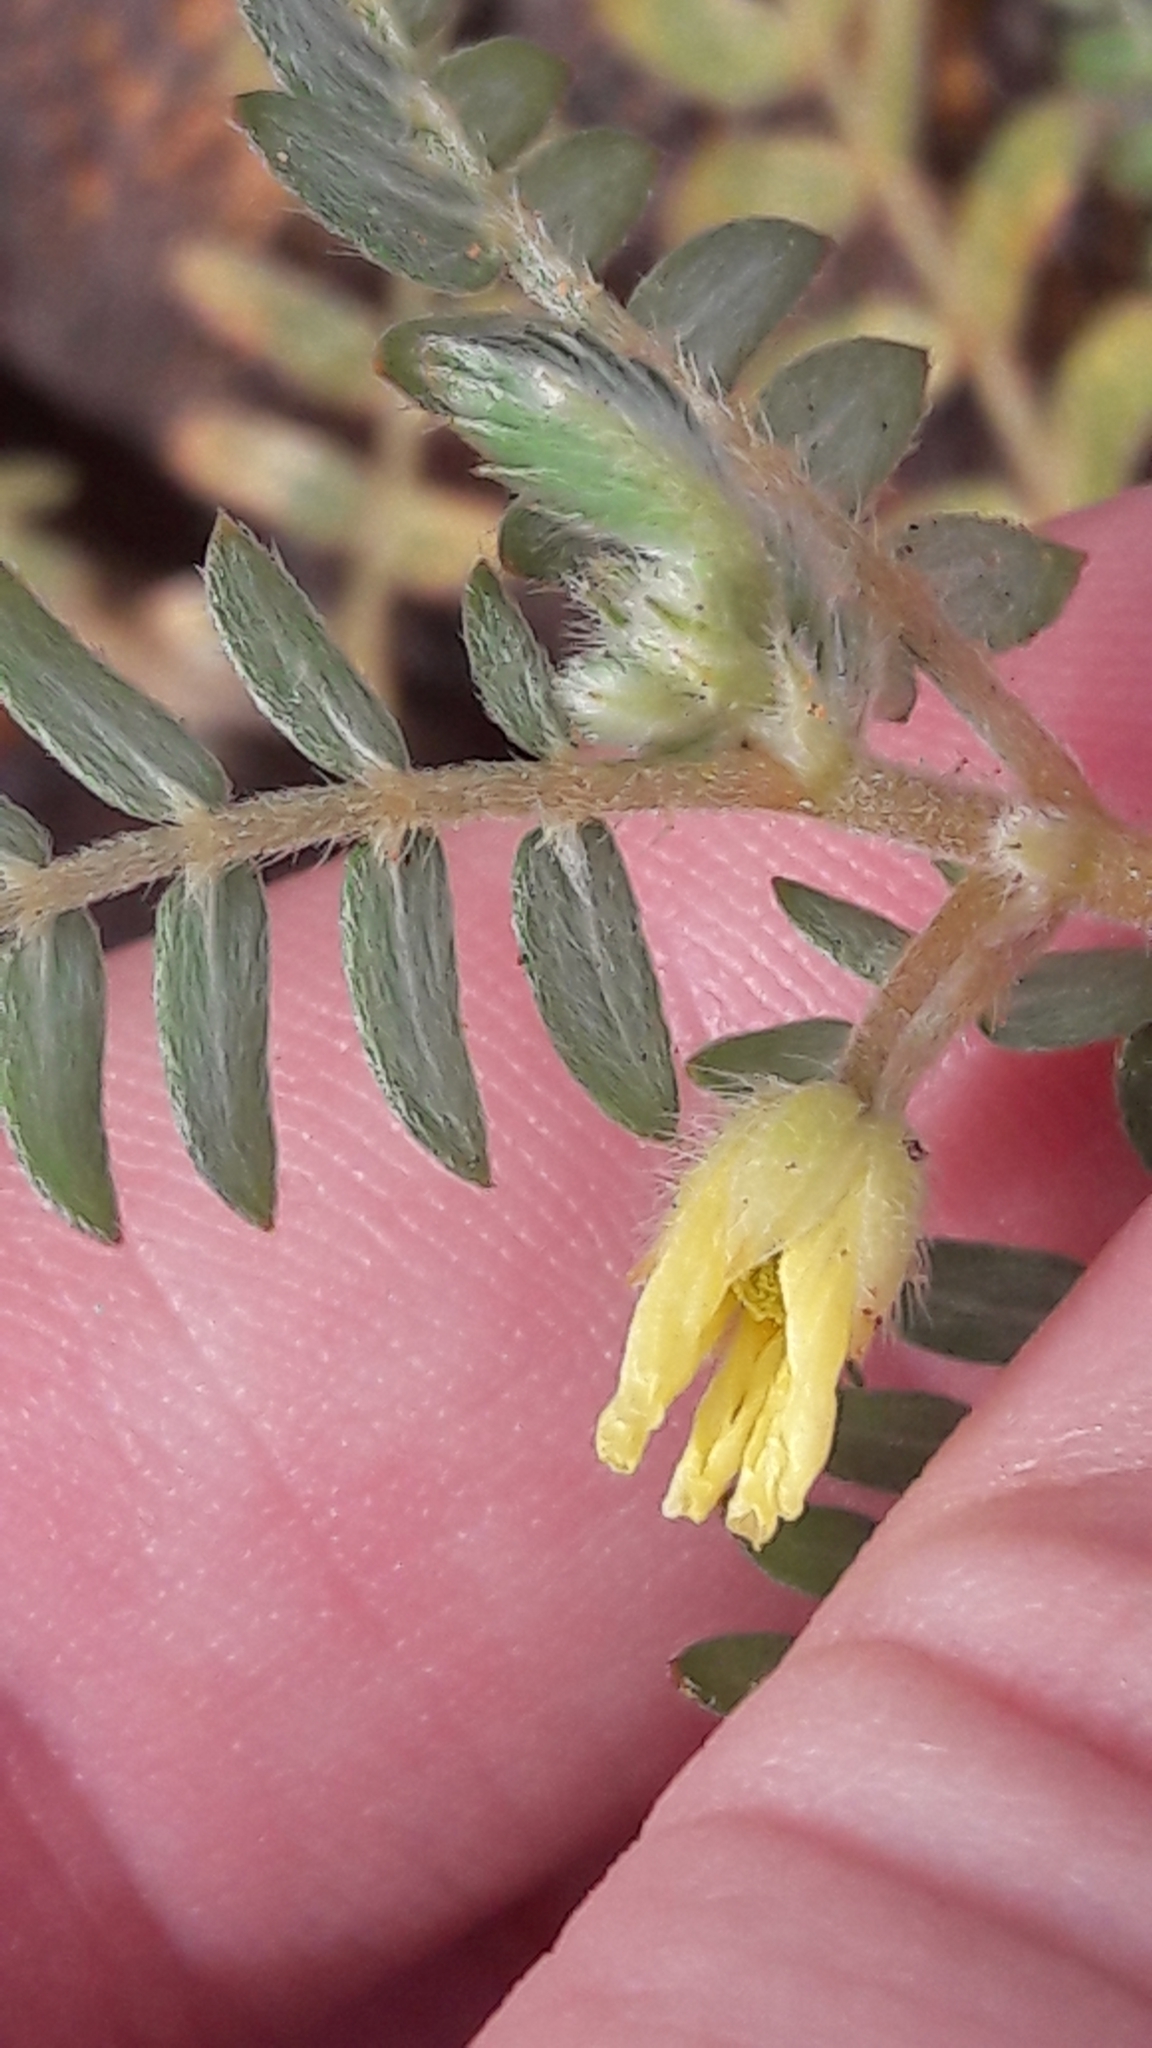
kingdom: Plantae
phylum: Tracheophyta
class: Magnoliopsida
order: Zygophyllales
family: Zygophyllaceae
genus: Tribulus
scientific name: Tribulus terrestris
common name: Puncturevine
